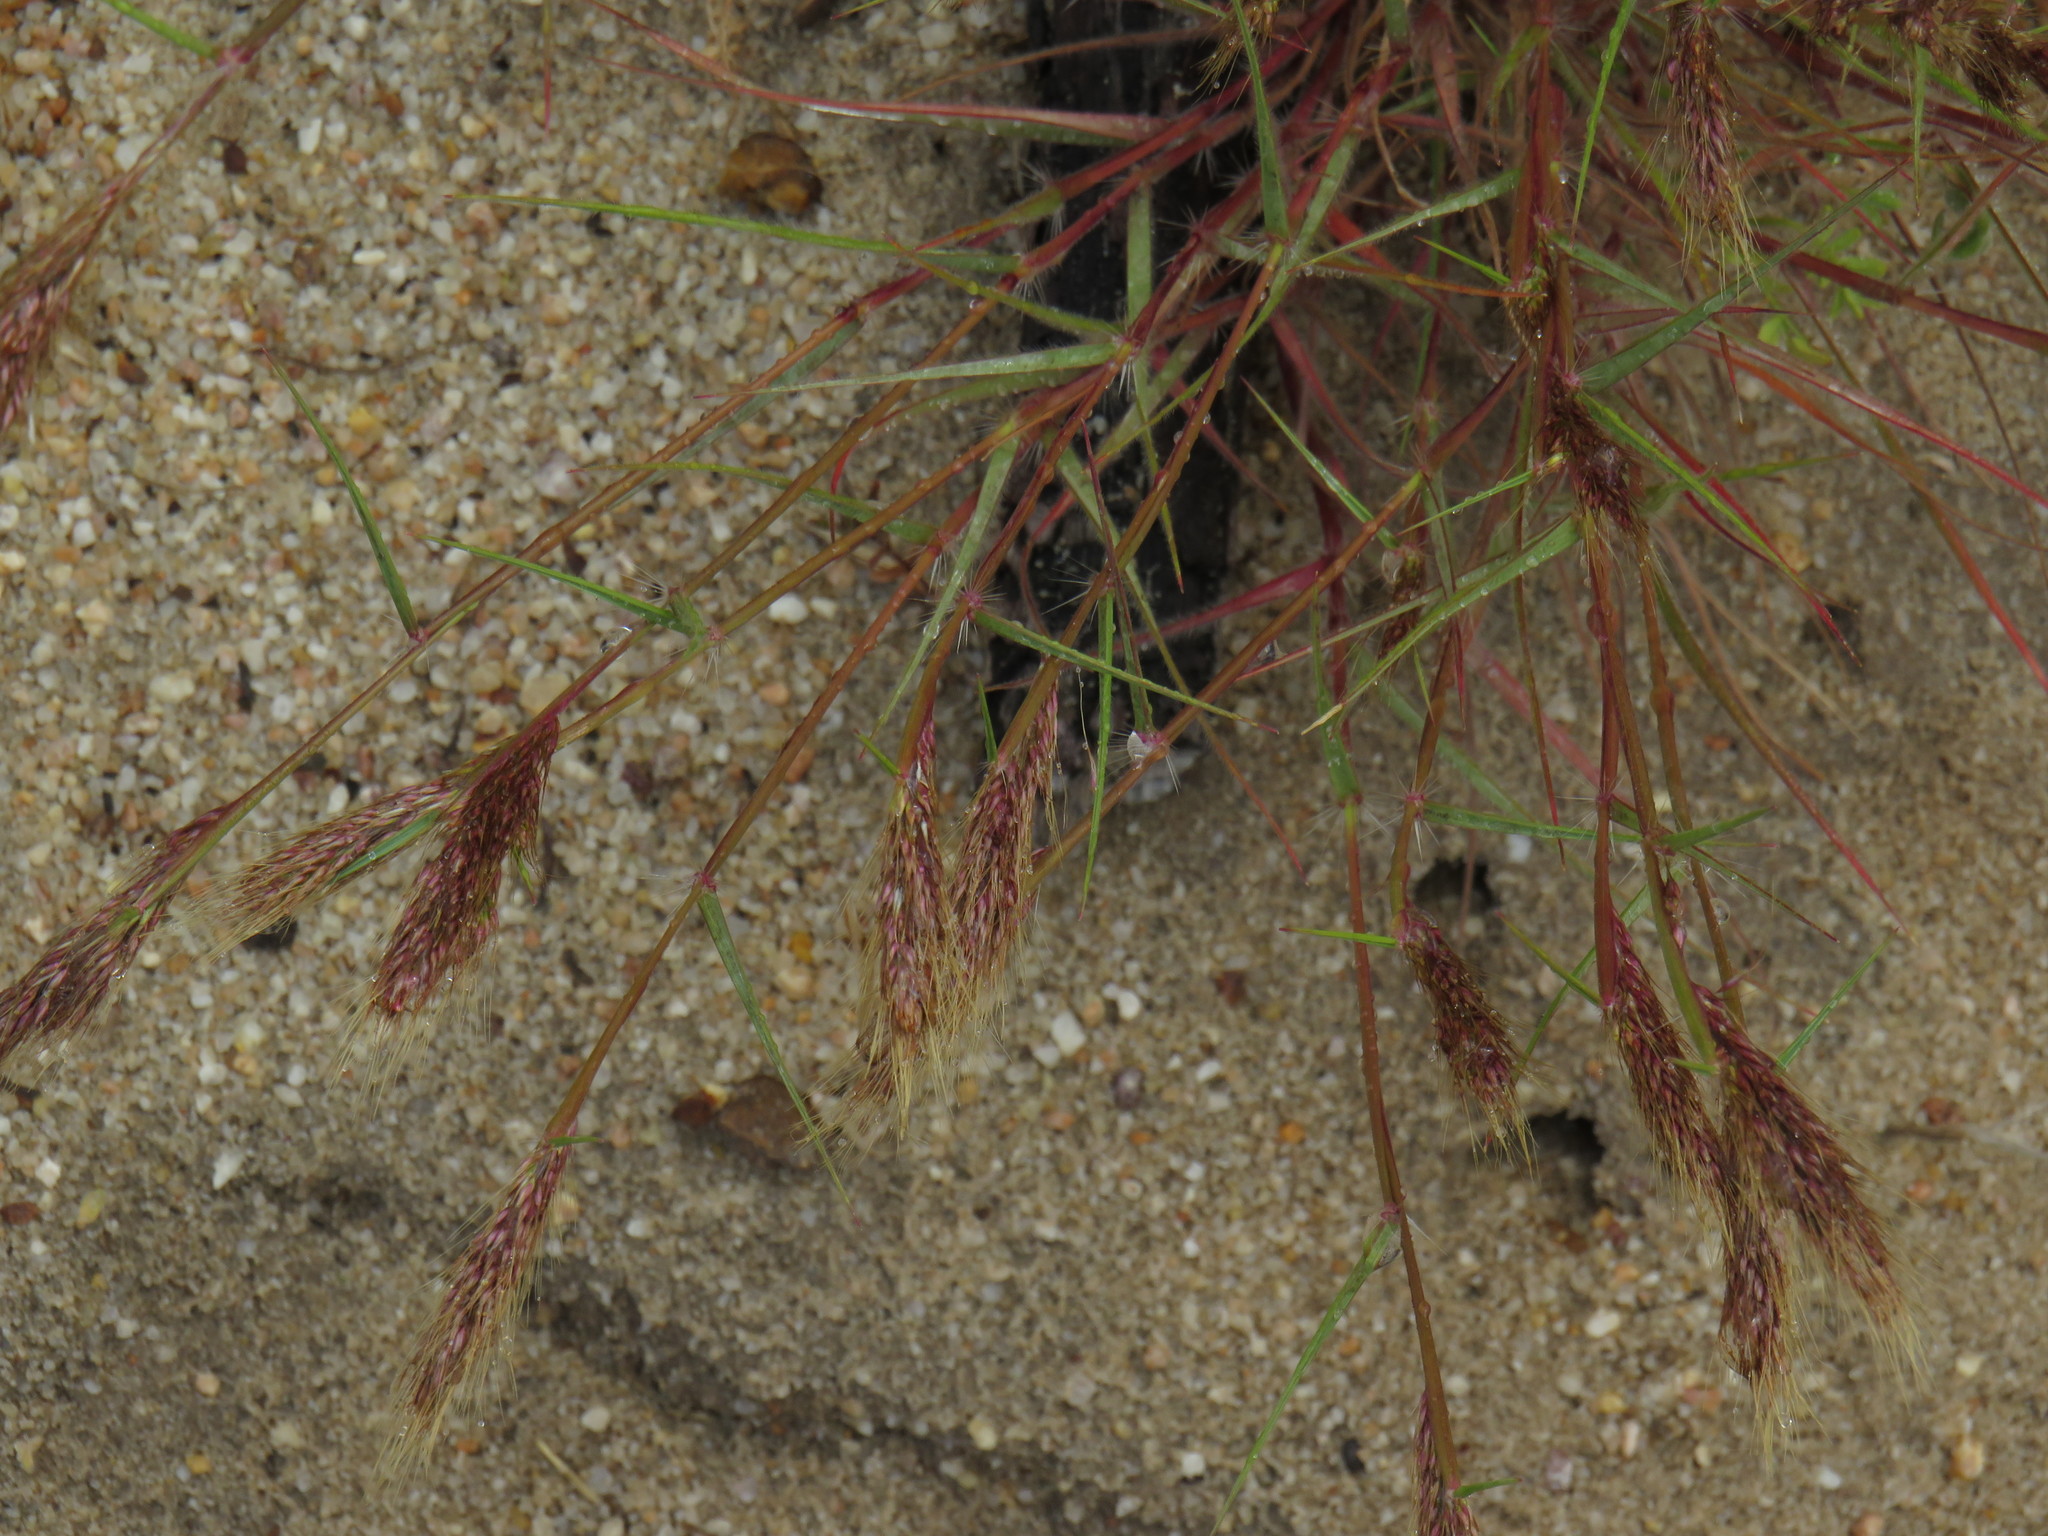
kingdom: Plantae
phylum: Tracheophyta
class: Liliopsida
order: Poales
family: Poaceae
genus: Pentameris
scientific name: Pentameris airoides
